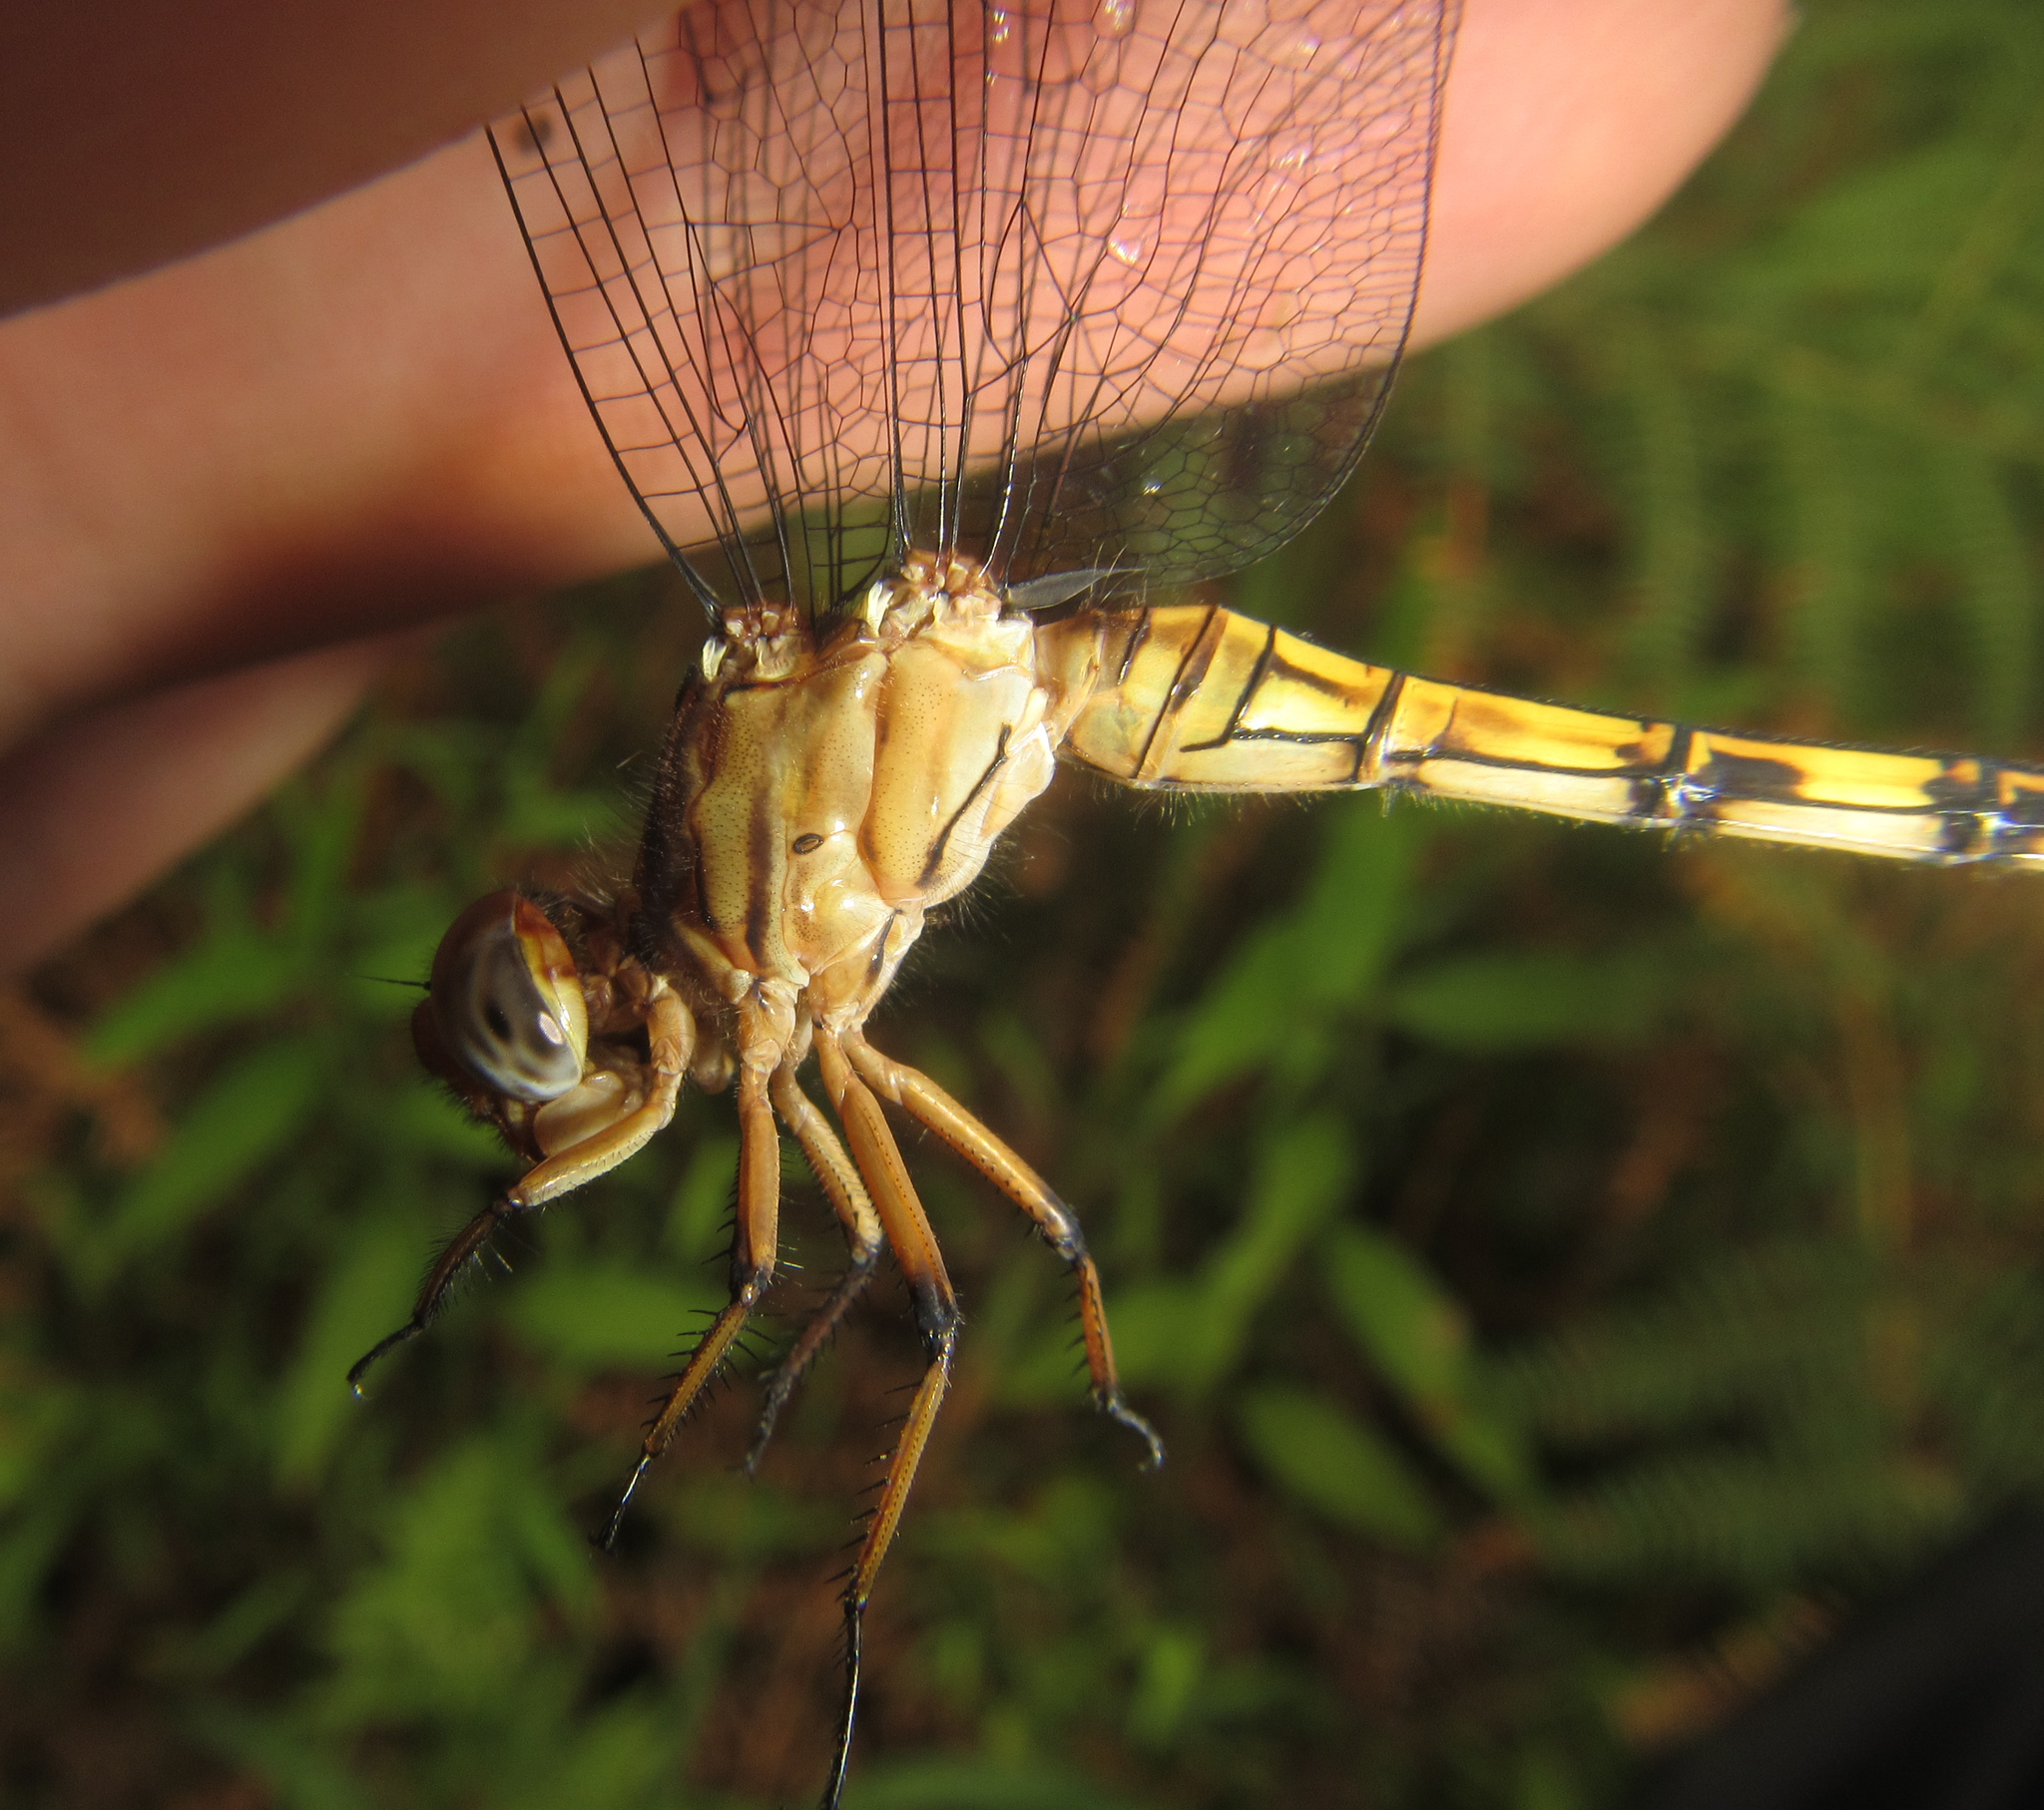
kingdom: Animalia
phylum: Arthropoda
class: Insecta
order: Odonata
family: Libellulidae
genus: Orthetrum
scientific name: Orthetrum julia
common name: Julia skimmer
